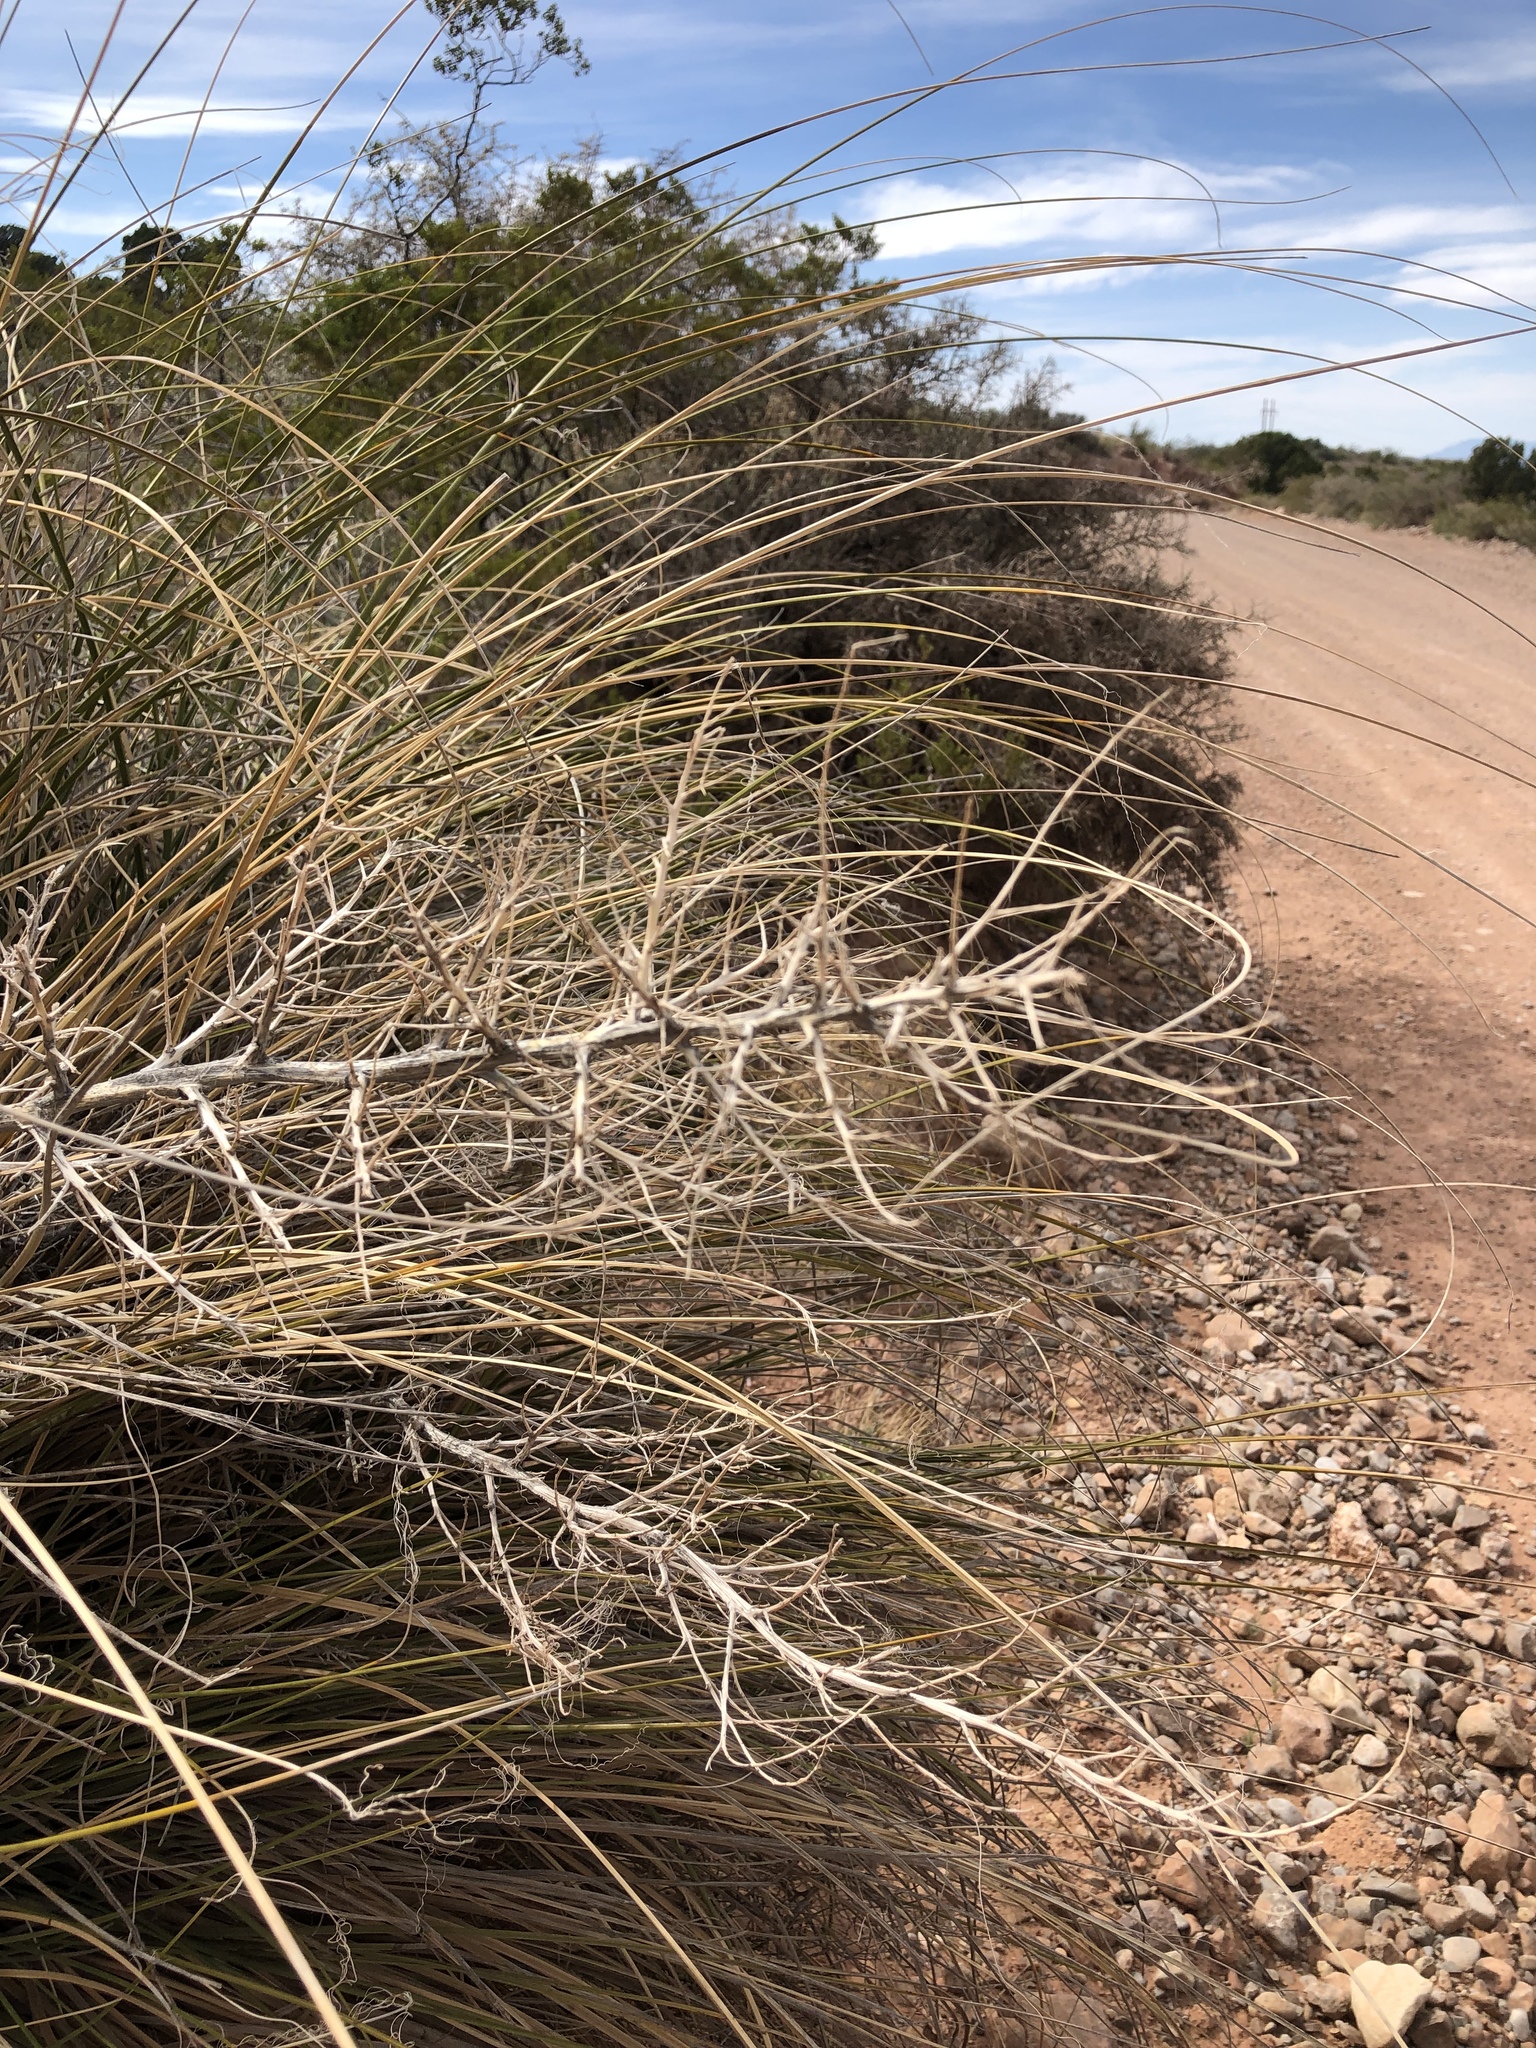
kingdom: Plantae
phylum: Tracheophyta
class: Liliopsida
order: Asparagales
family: Asparagaceae
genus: Nolina
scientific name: Nolina microcarpa
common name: Bear-grass
